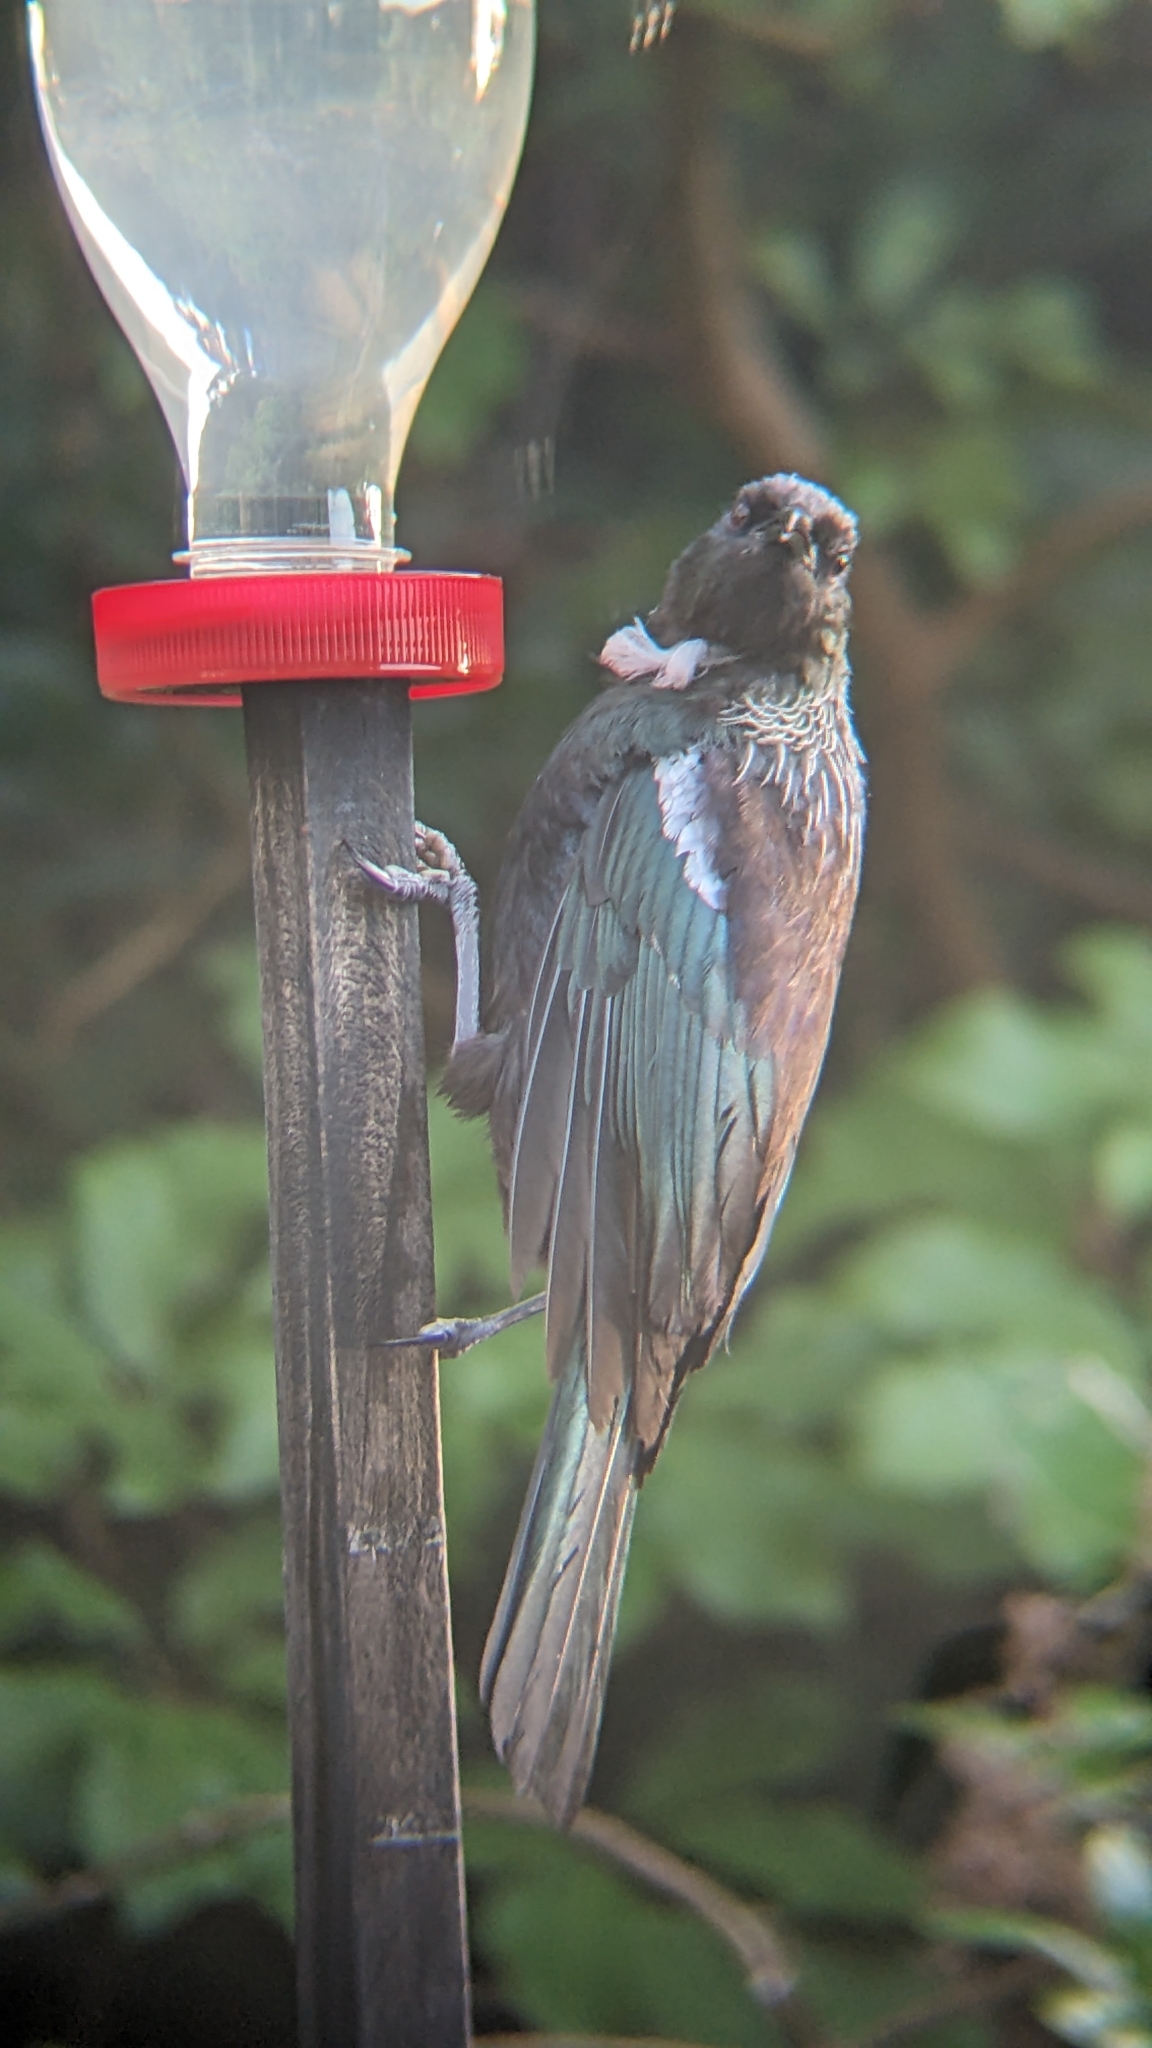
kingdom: Animalia
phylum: Chordata
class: Aves
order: Passeriformes
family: Meliphagidae
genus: Prosthemadera
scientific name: Prosthemadera novaeseelandiae
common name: Tui
